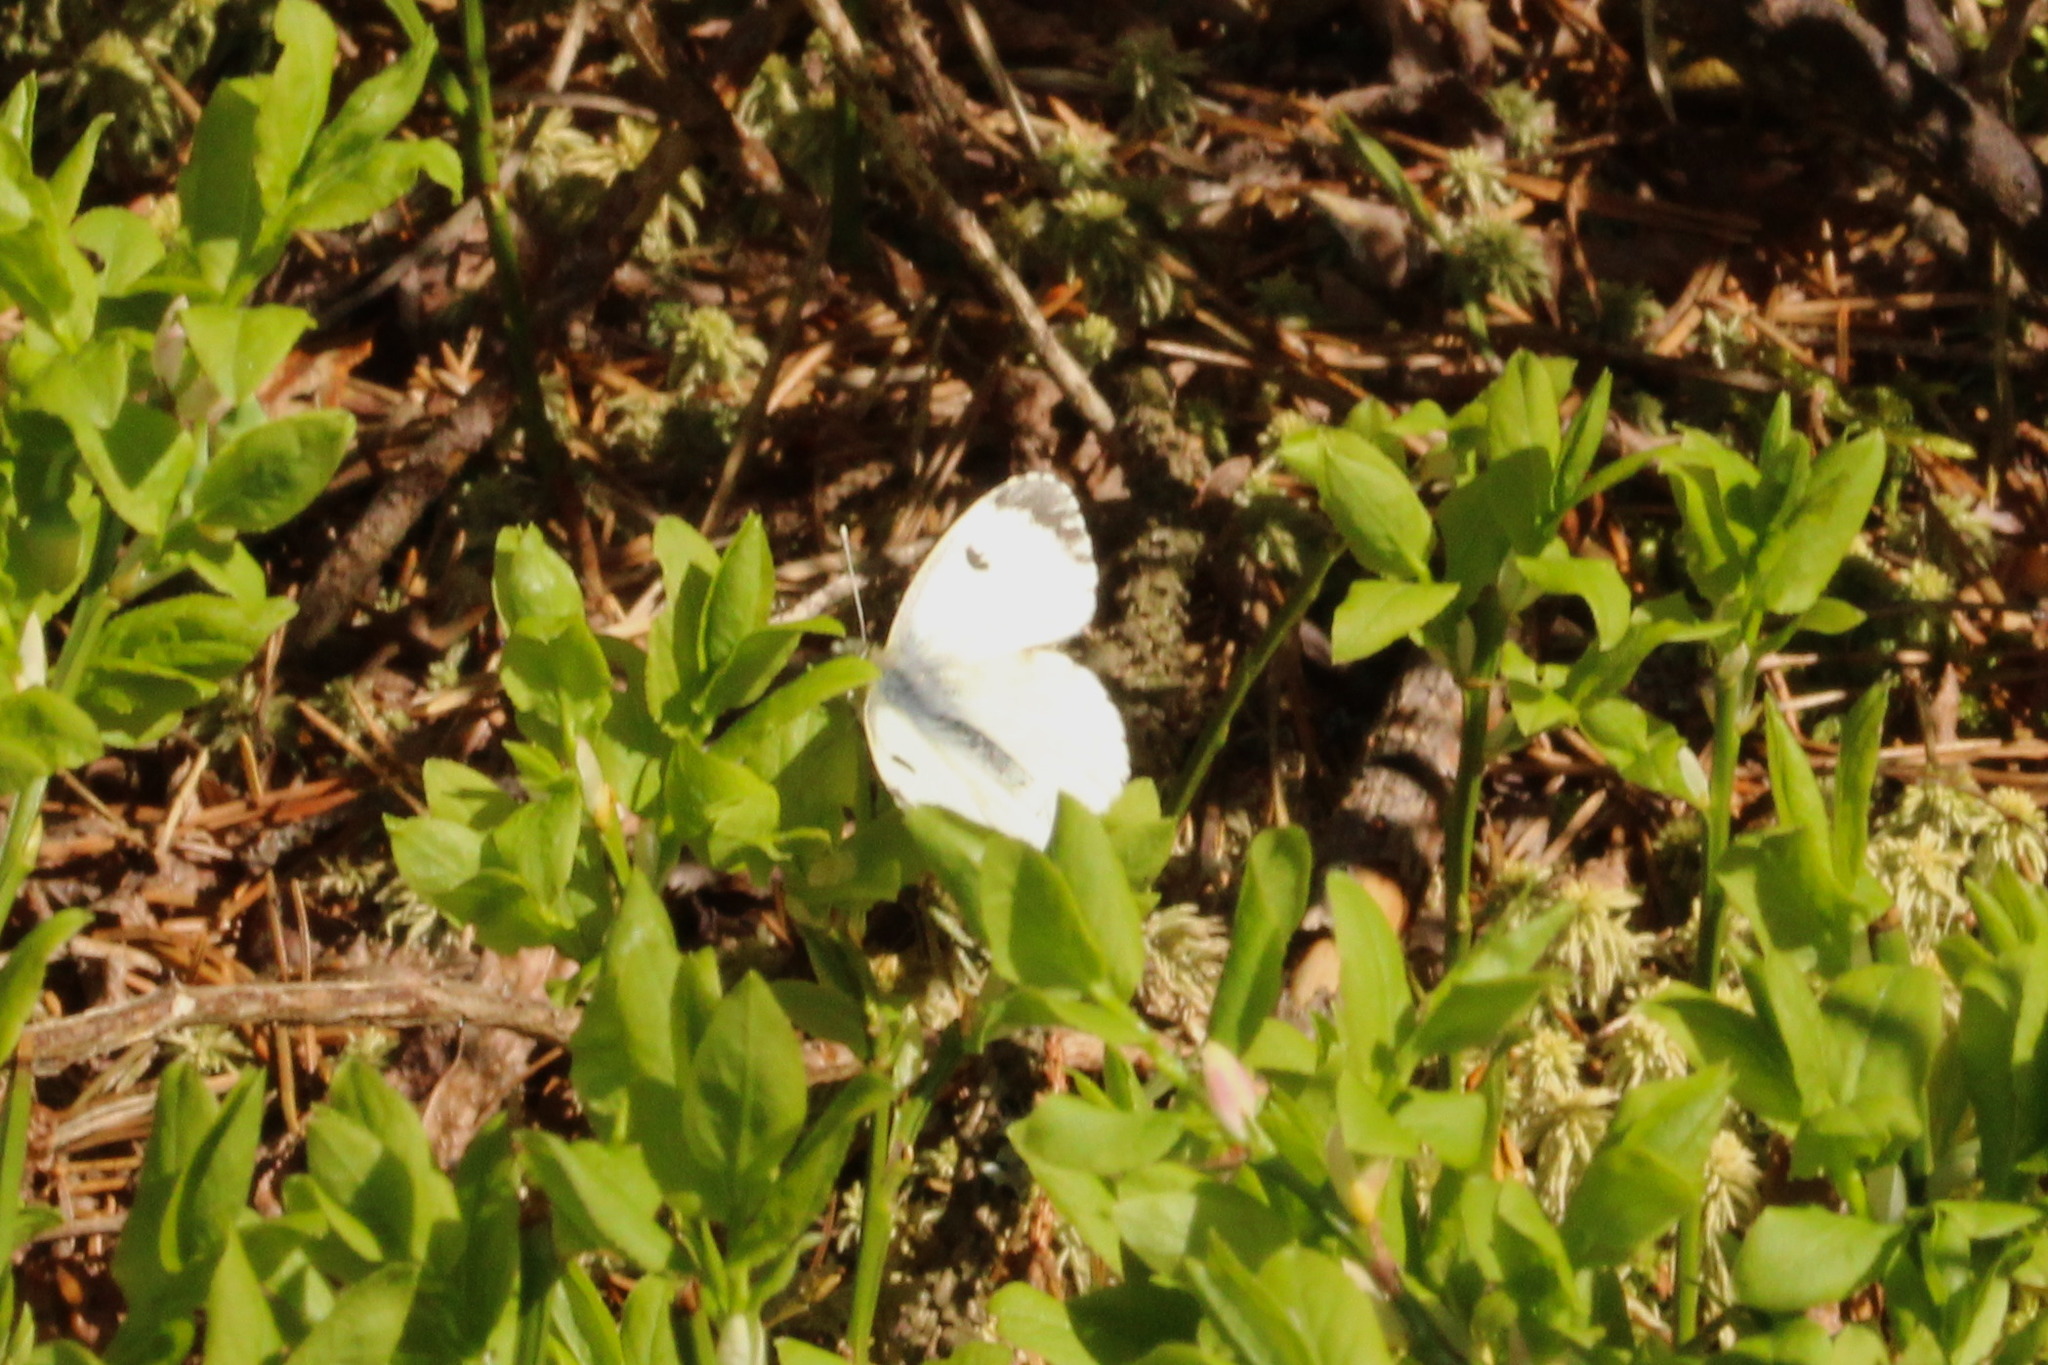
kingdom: Animalia
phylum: Arthropoda
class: Insecta
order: Lepidoptera
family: Pieridae
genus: Anthocharis
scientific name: Anthocharis cardamines
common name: Orange-tip
